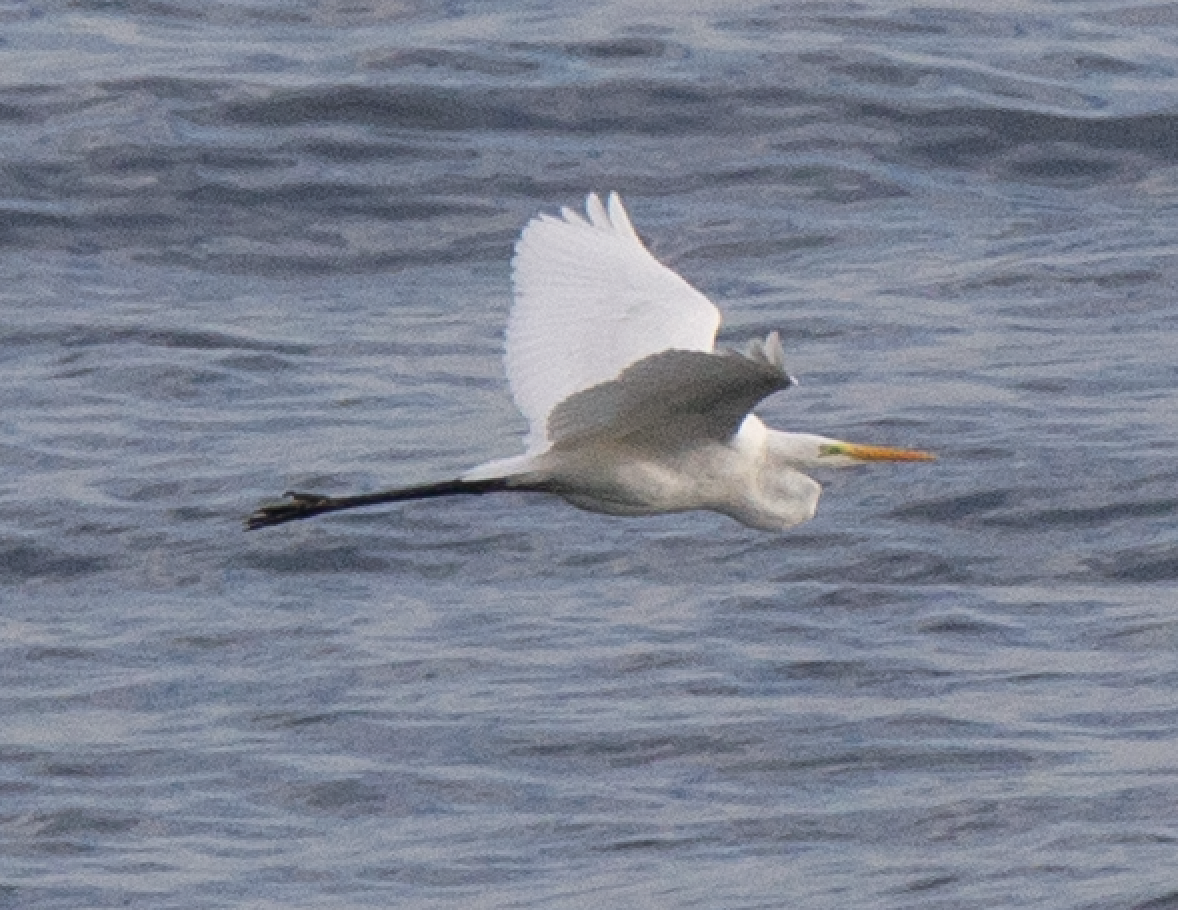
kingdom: Animalia
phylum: Chordata
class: Aves
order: Pelecaniformes
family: Ardeidae
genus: Ardea
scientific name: Ardea alba
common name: Great egret
